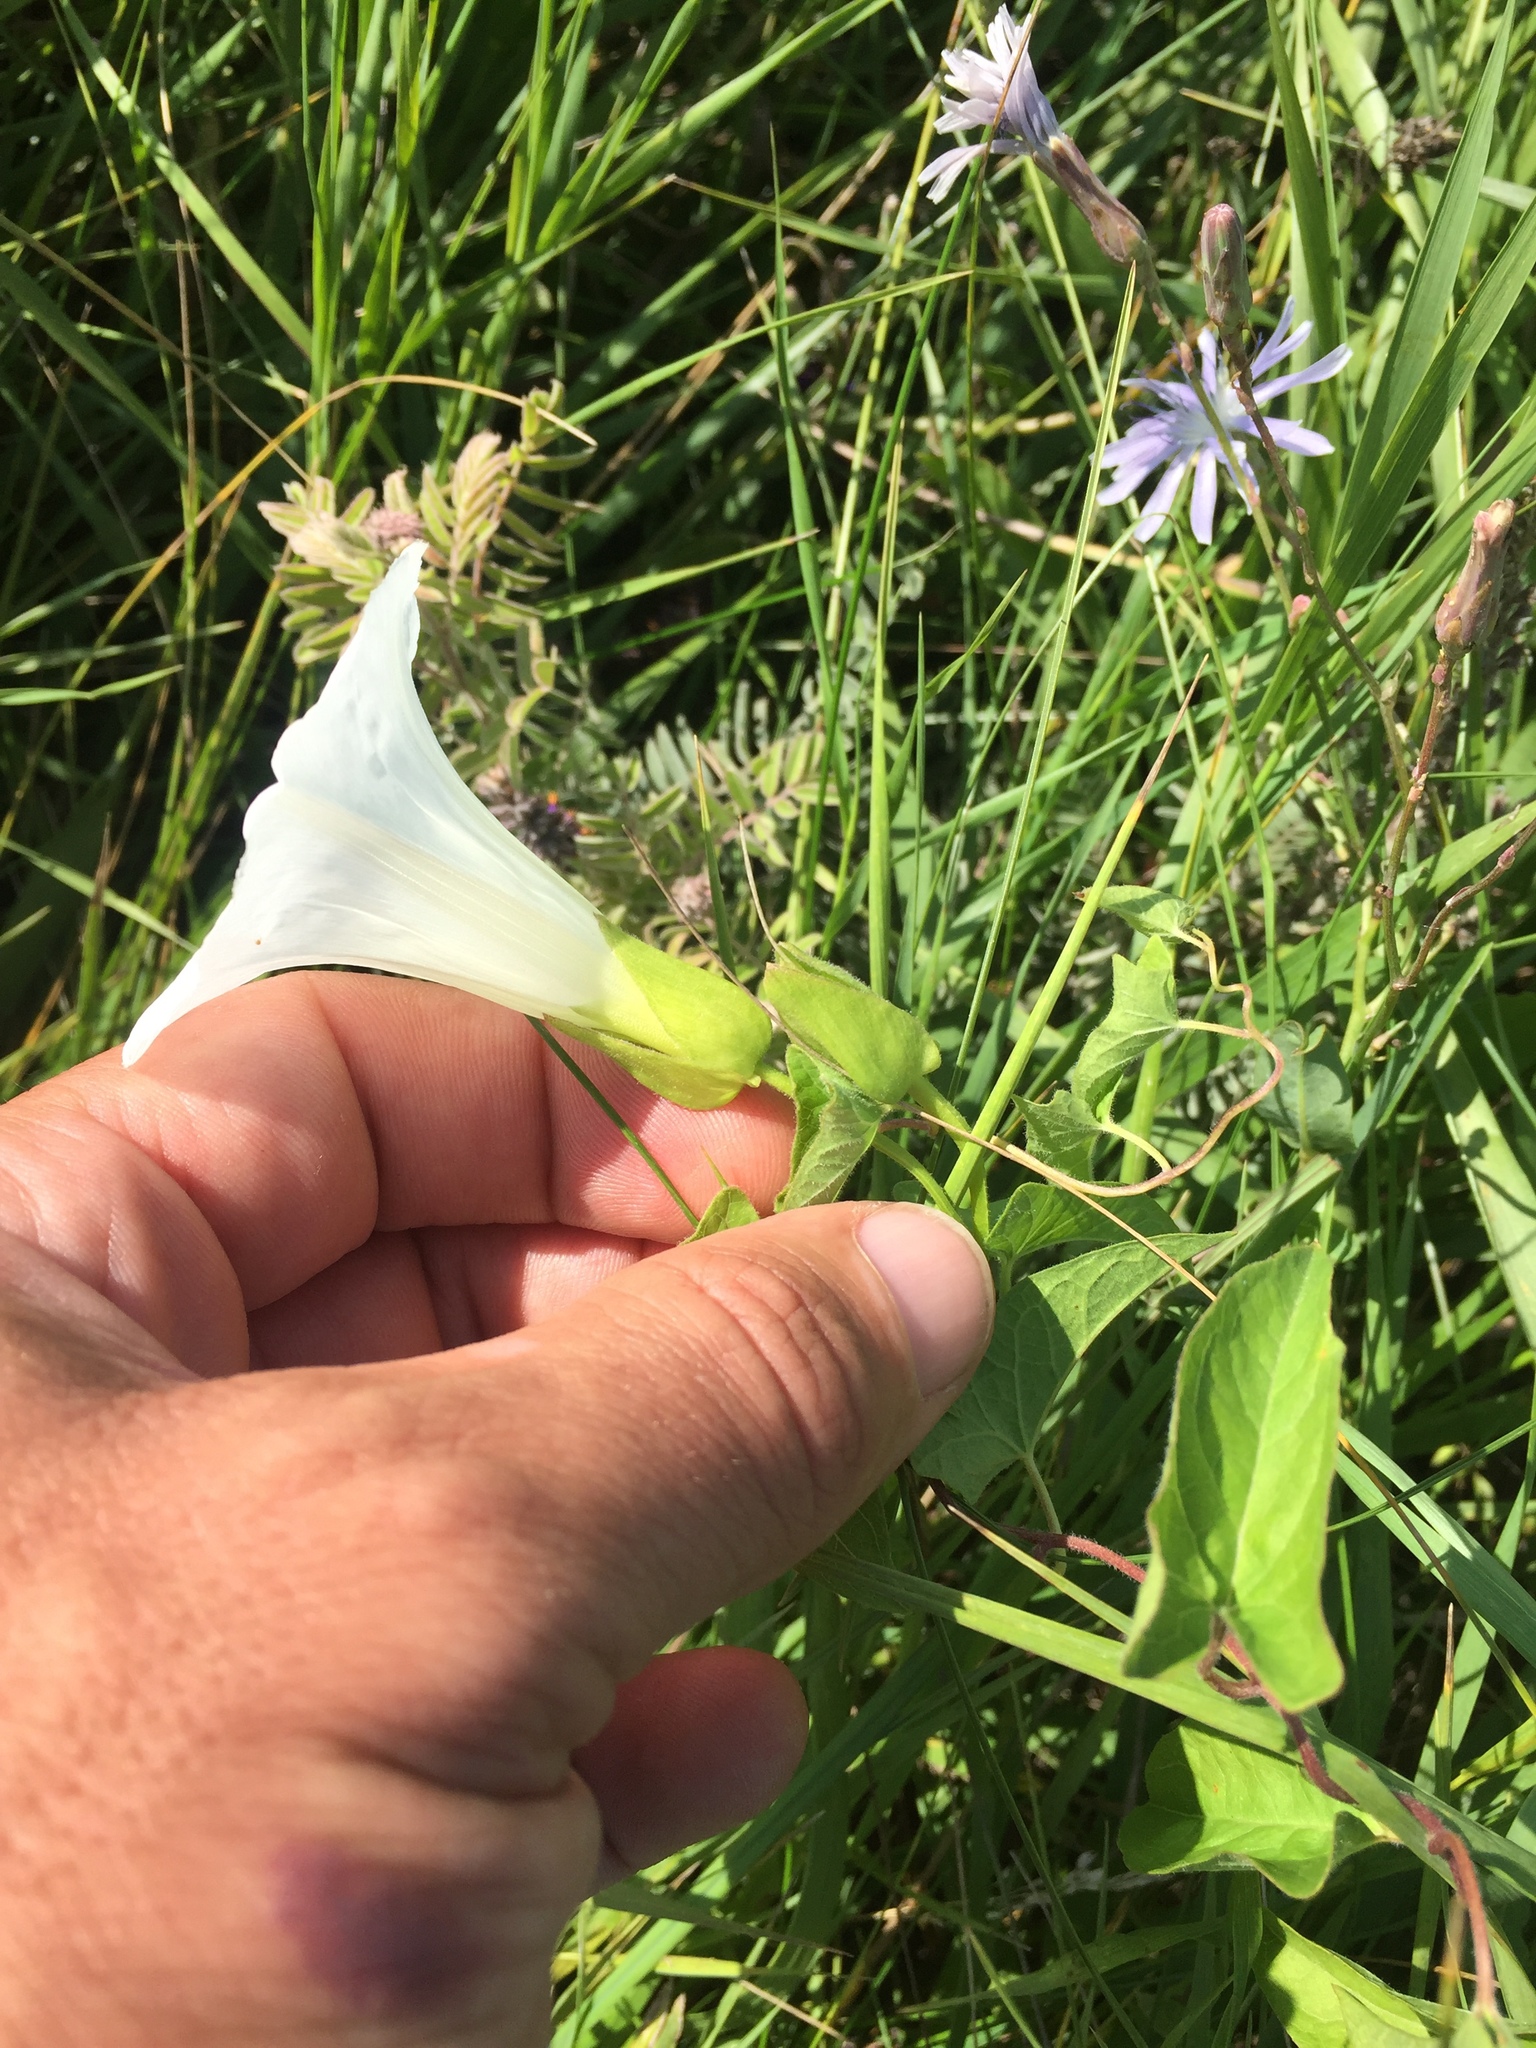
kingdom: Plantae
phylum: Tracheophyta
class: Magnoliopsida
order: Solanales
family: Convolvulaceae
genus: Calystegia
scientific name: Calystegia sepium
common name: Hedge bindweed
